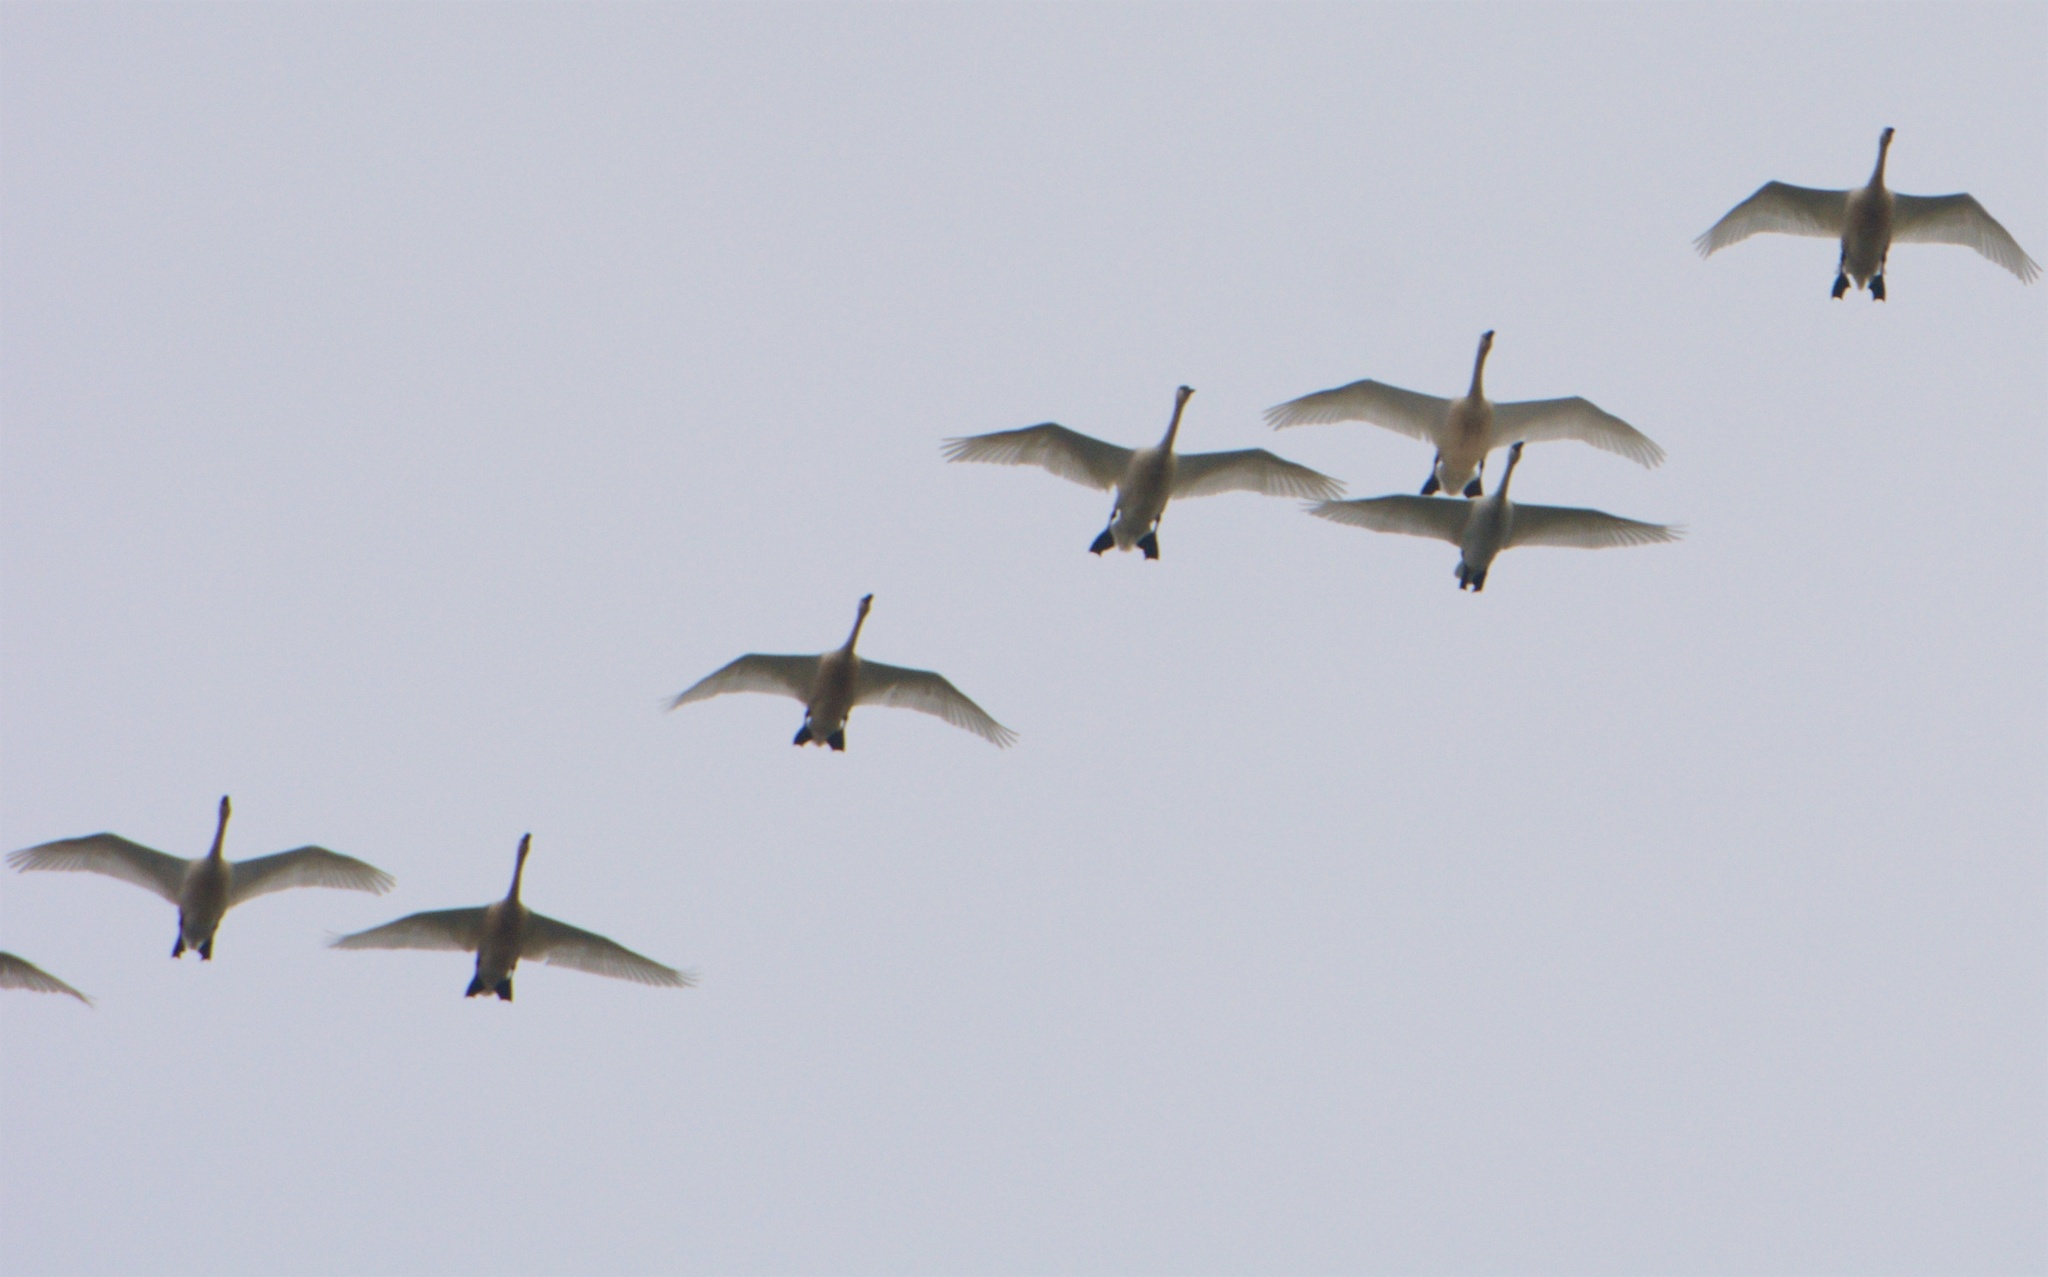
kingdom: Animalia
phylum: Chordata
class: Aves
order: Anseriformes
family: Anatidae
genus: Cygnus
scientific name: Cygnus columbianus
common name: Tundra swan
